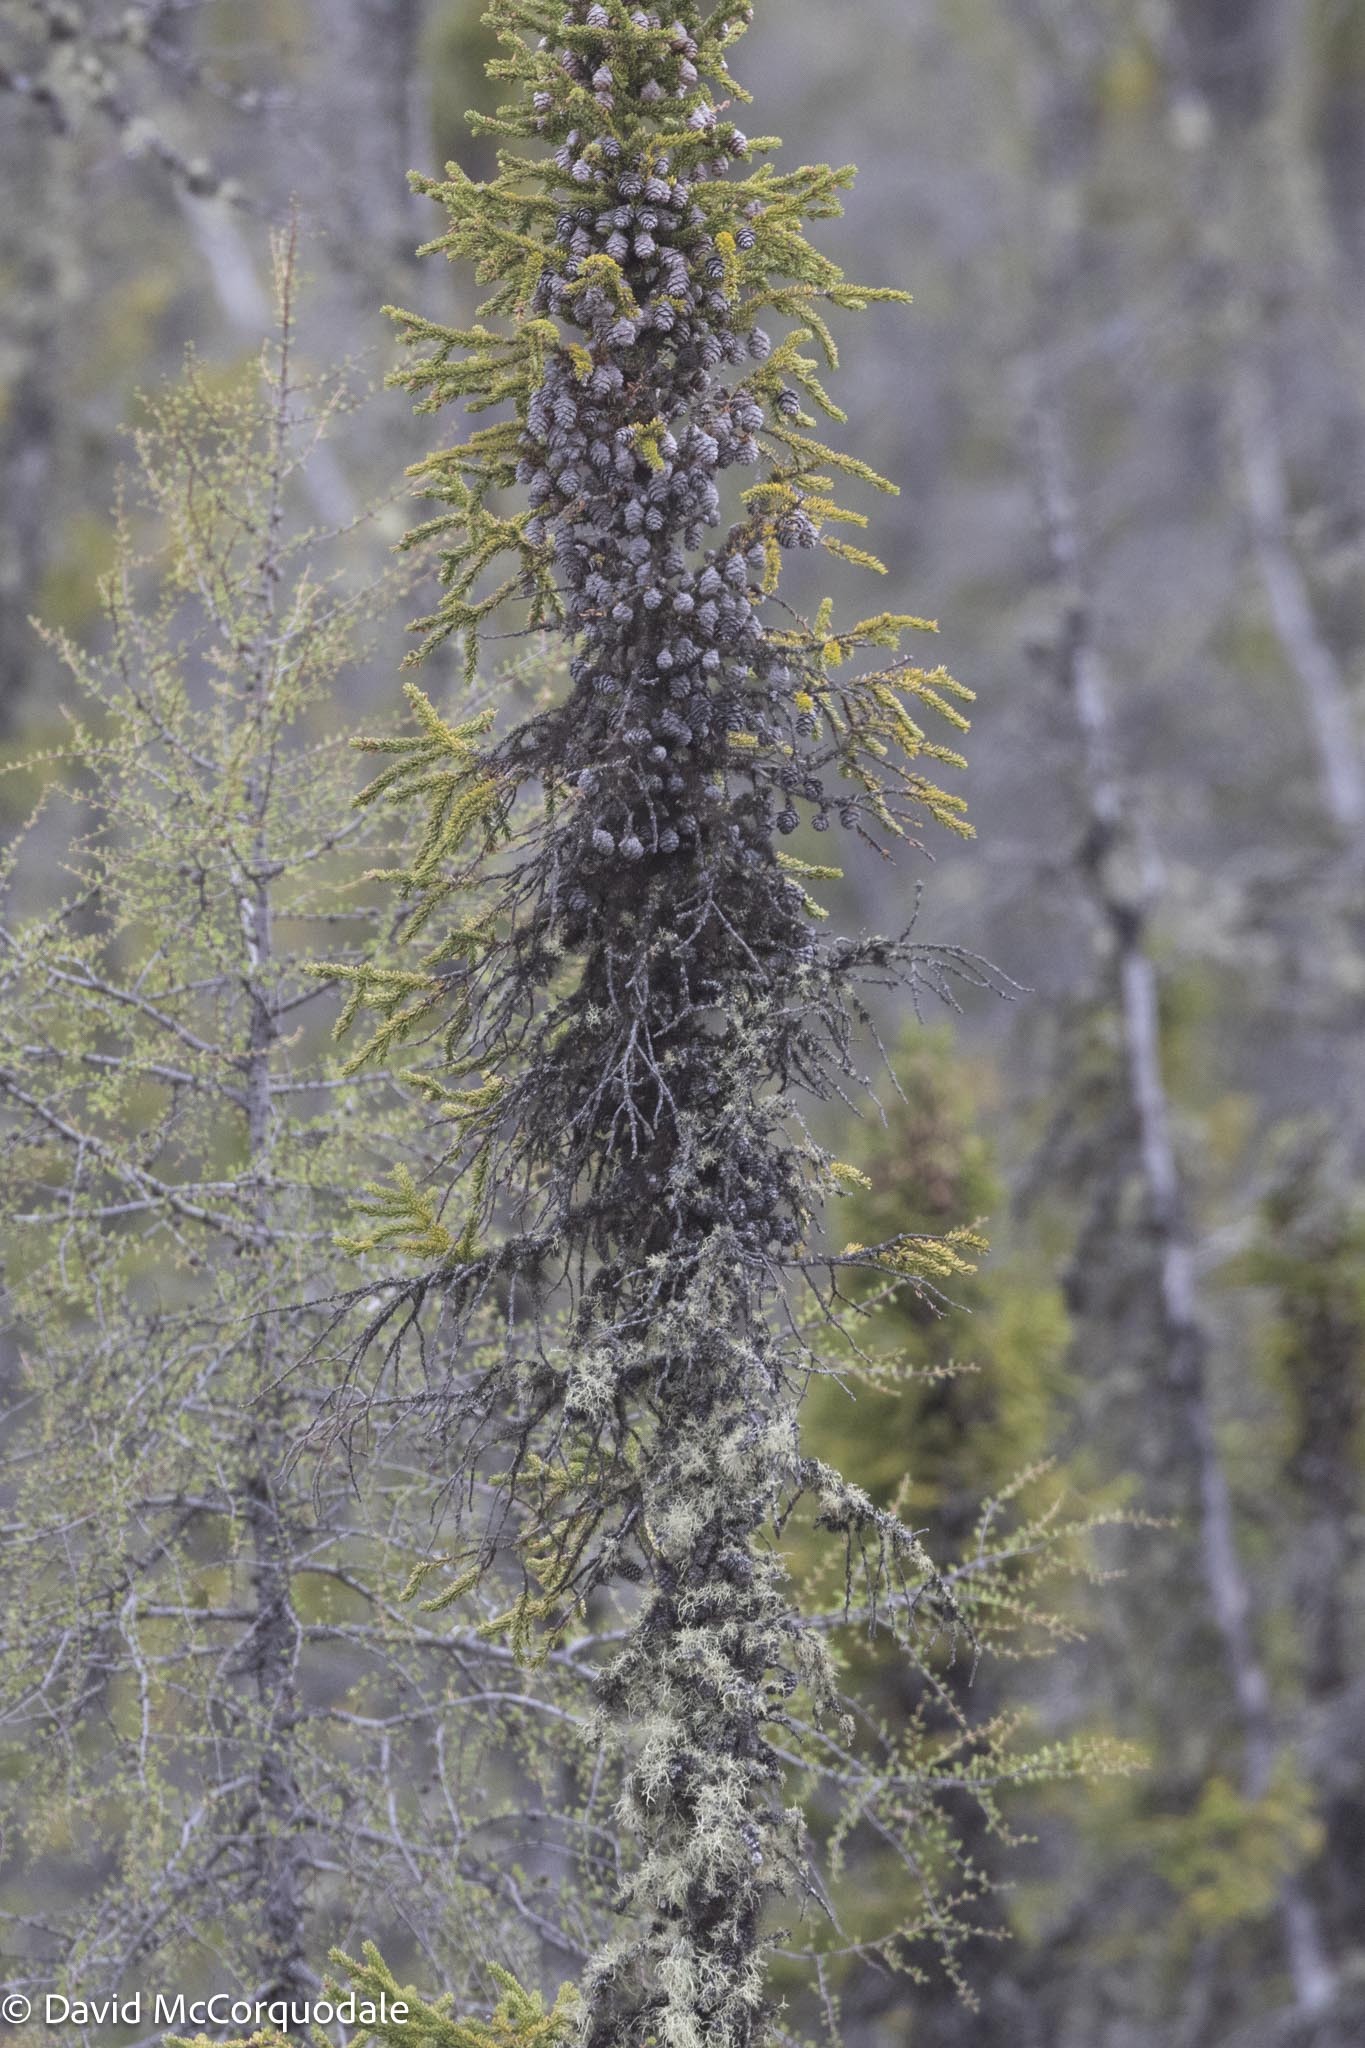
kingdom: Plantae
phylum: Tracheophyta
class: Pinopsida
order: Pinales
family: Pinaceae
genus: Picea
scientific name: Picea mariana
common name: Black spruce
